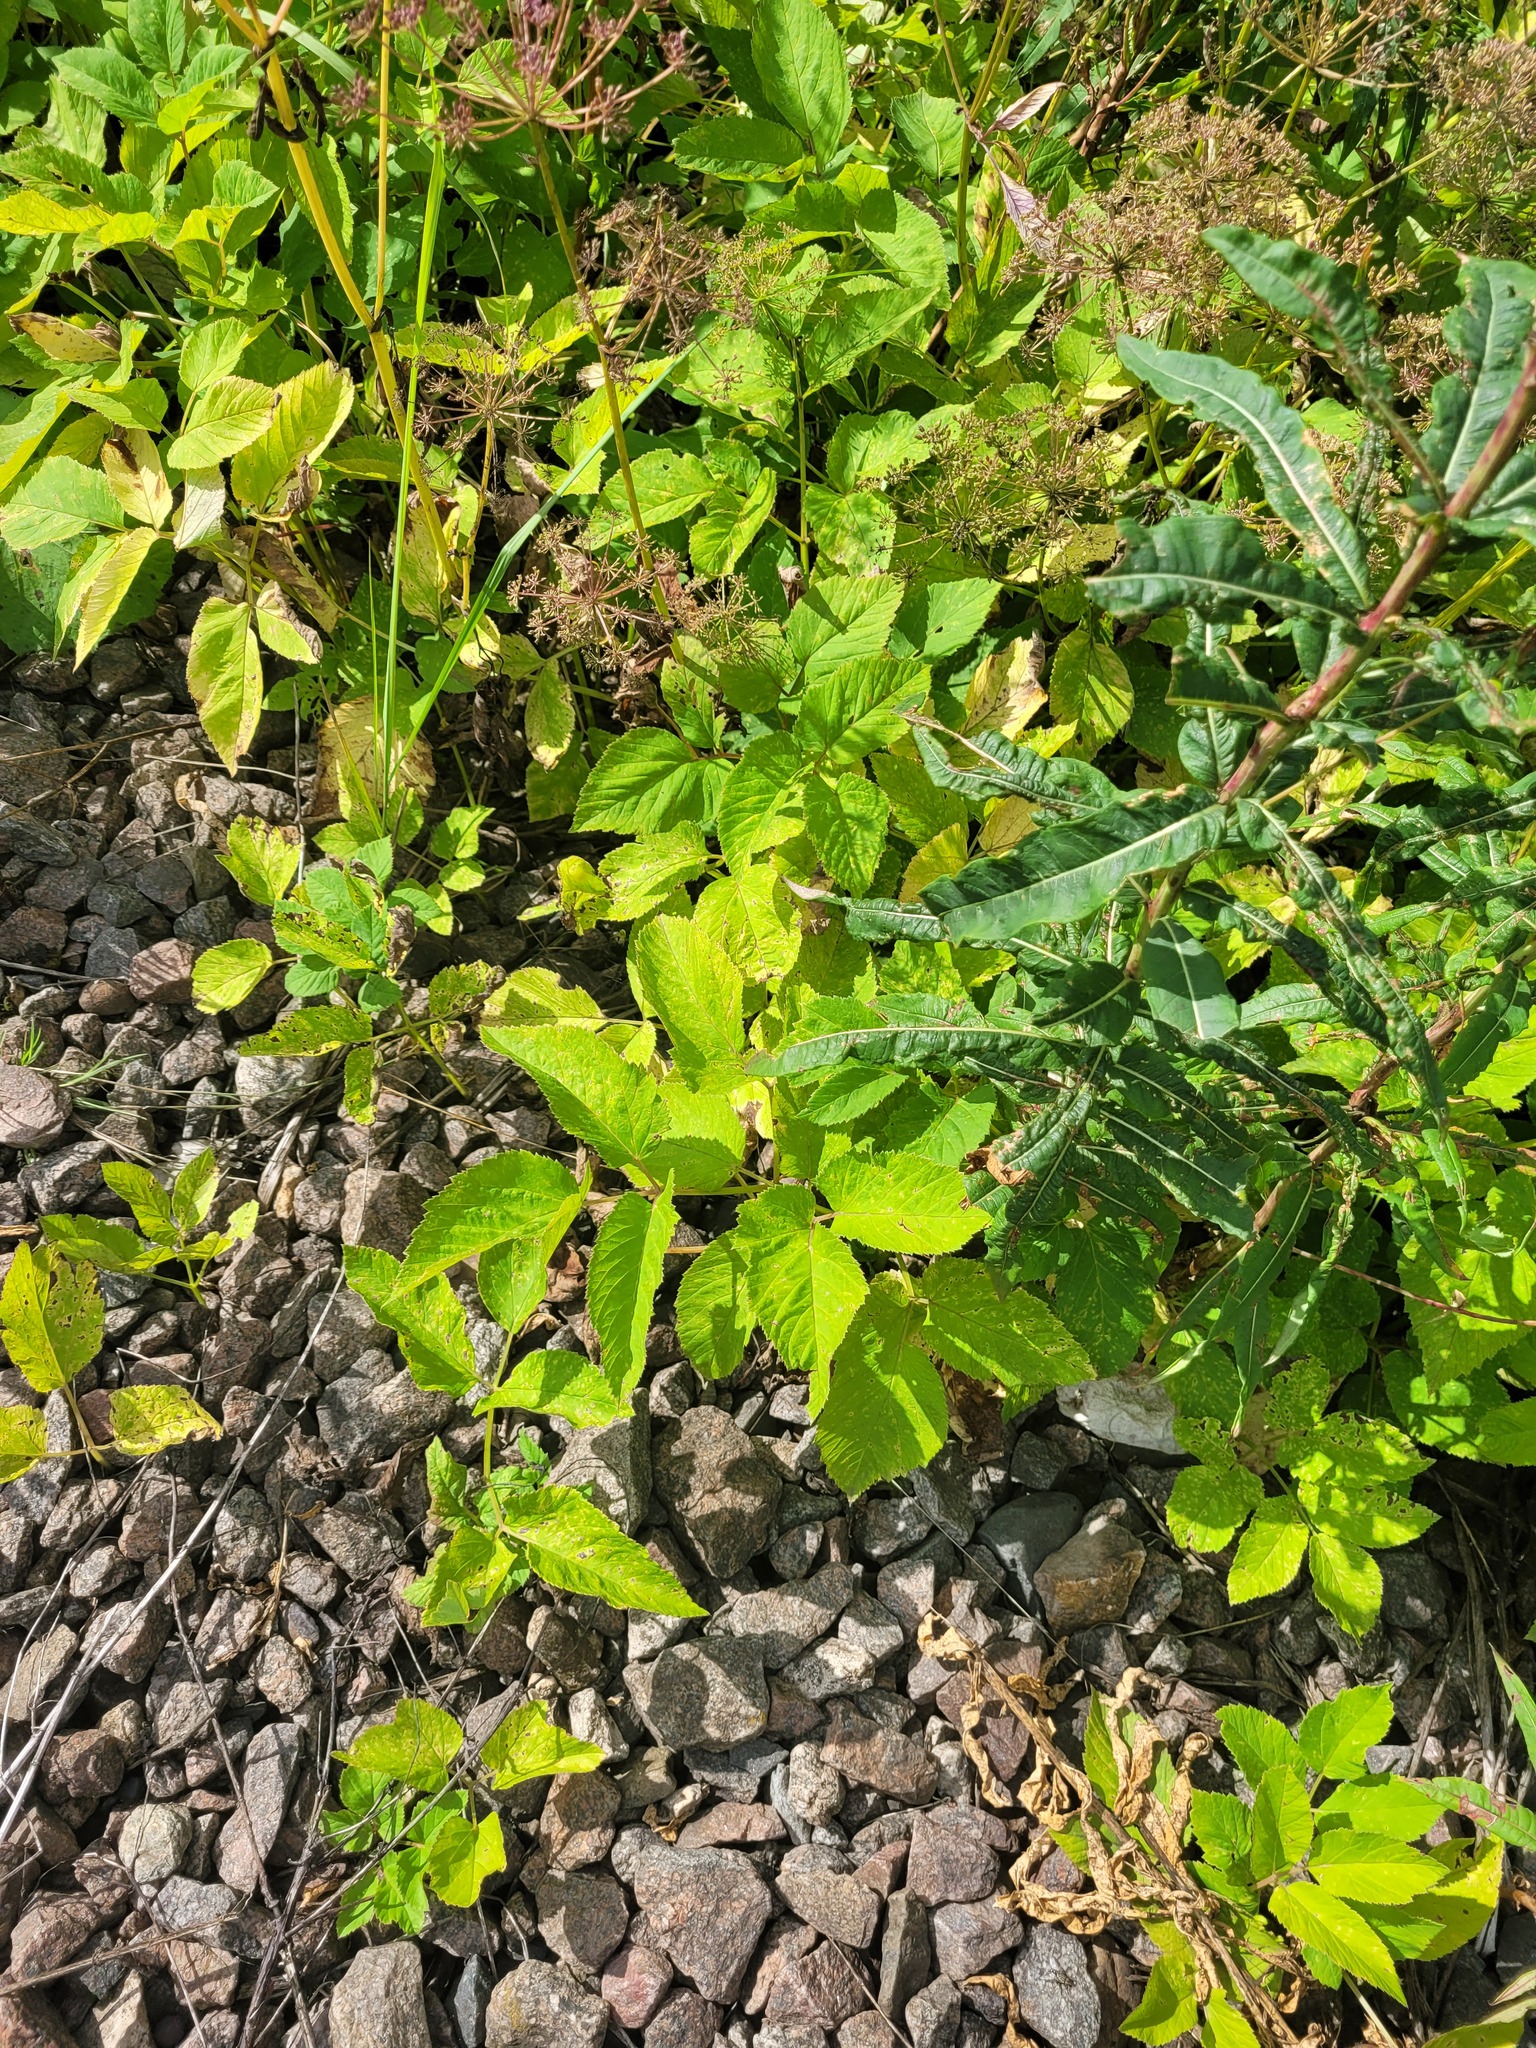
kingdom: Plantae
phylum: Tracheophyta
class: Magnoliopsida
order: Apiales
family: Apiaceae
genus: Aegopodium
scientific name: Aegopodium podagraria
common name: Ground-elder
